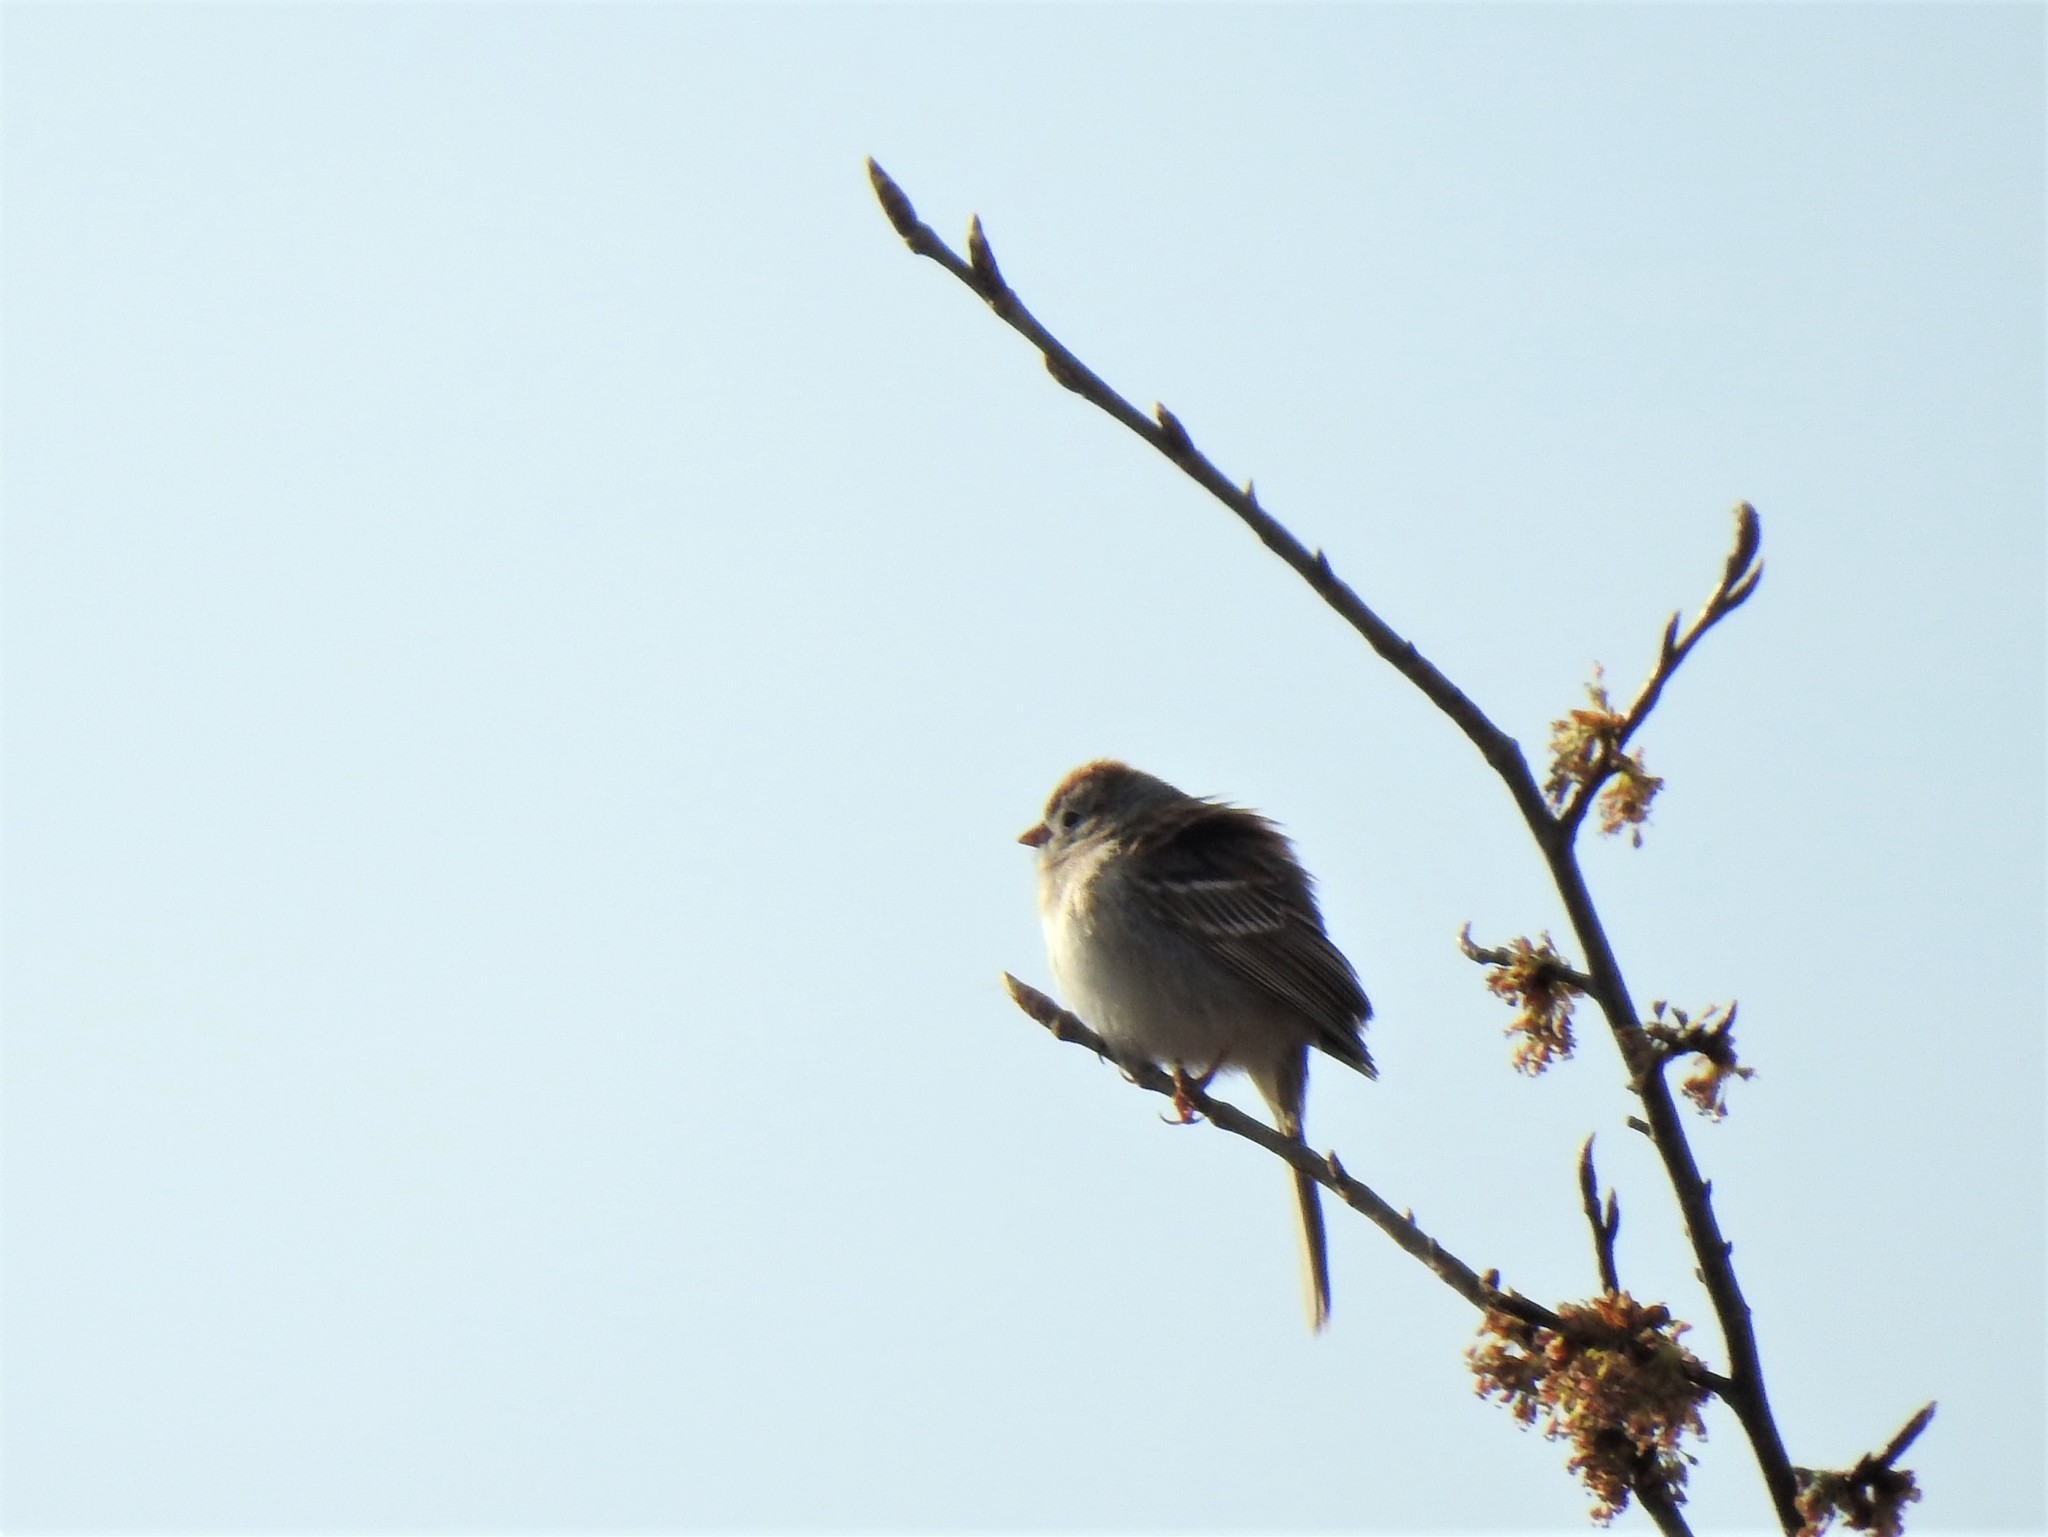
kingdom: Animalia
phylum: Chordata
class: Aves
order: Passeriformes
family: Passerellidae
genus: Spizella
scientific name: Spizella pusilla
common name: Field sparrow
